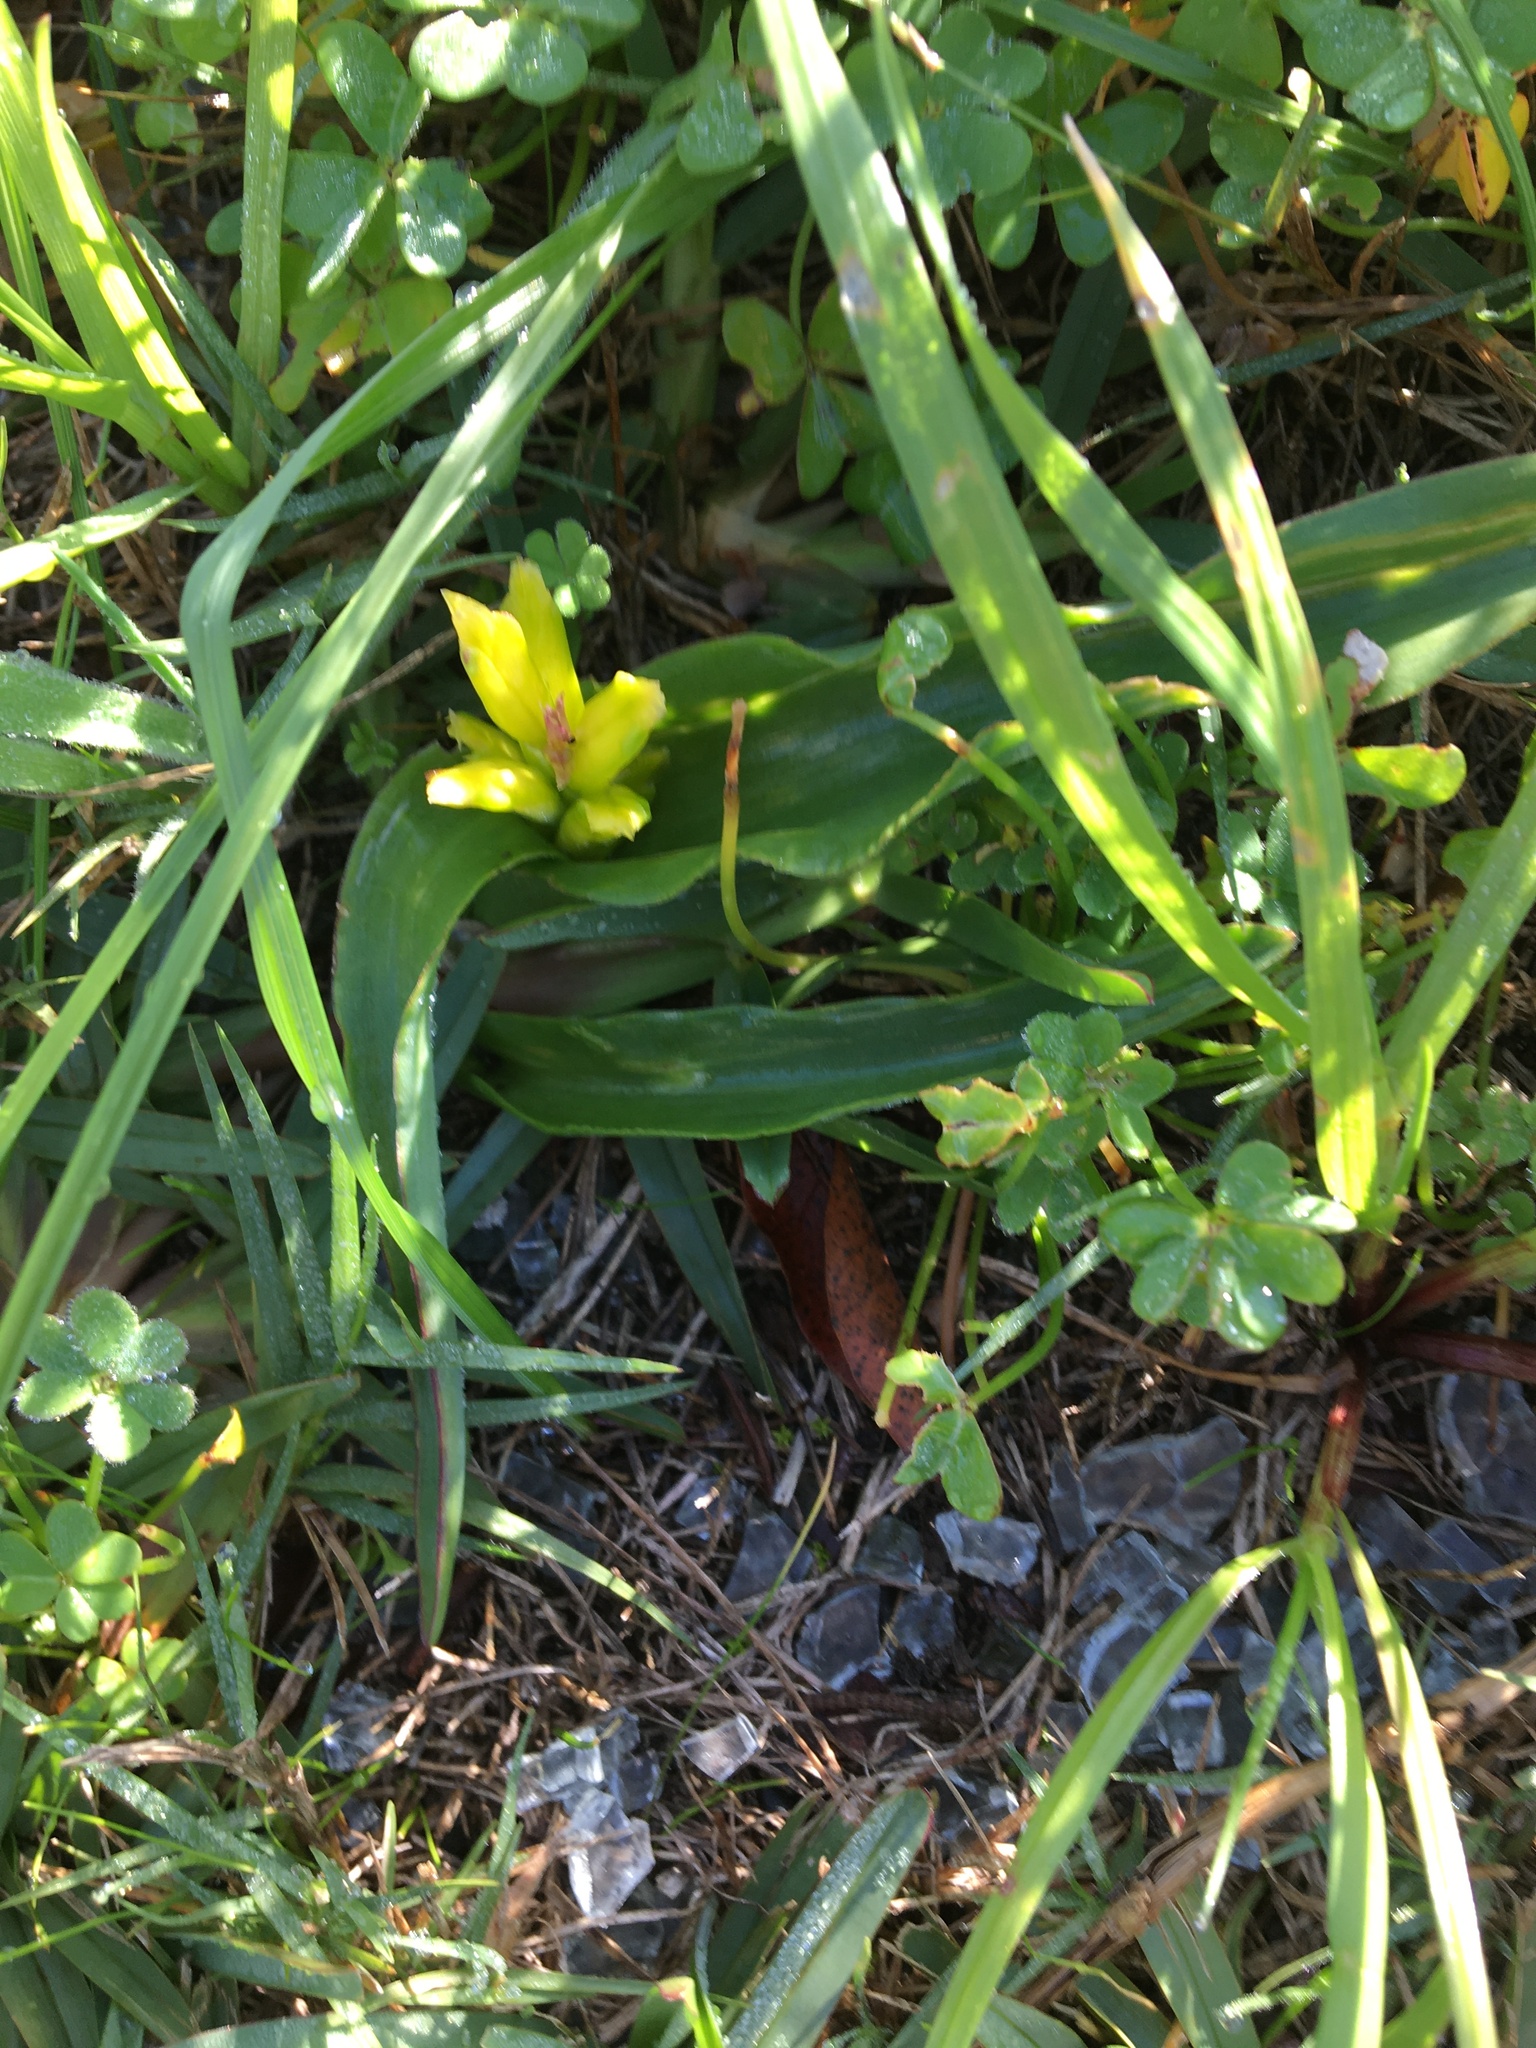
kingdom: Plantae
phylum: Tracheophyta
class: Liliopsida
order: Asparagales
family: Asparagaceae
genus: Lachenalia
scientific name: Lachenalia reflexa
